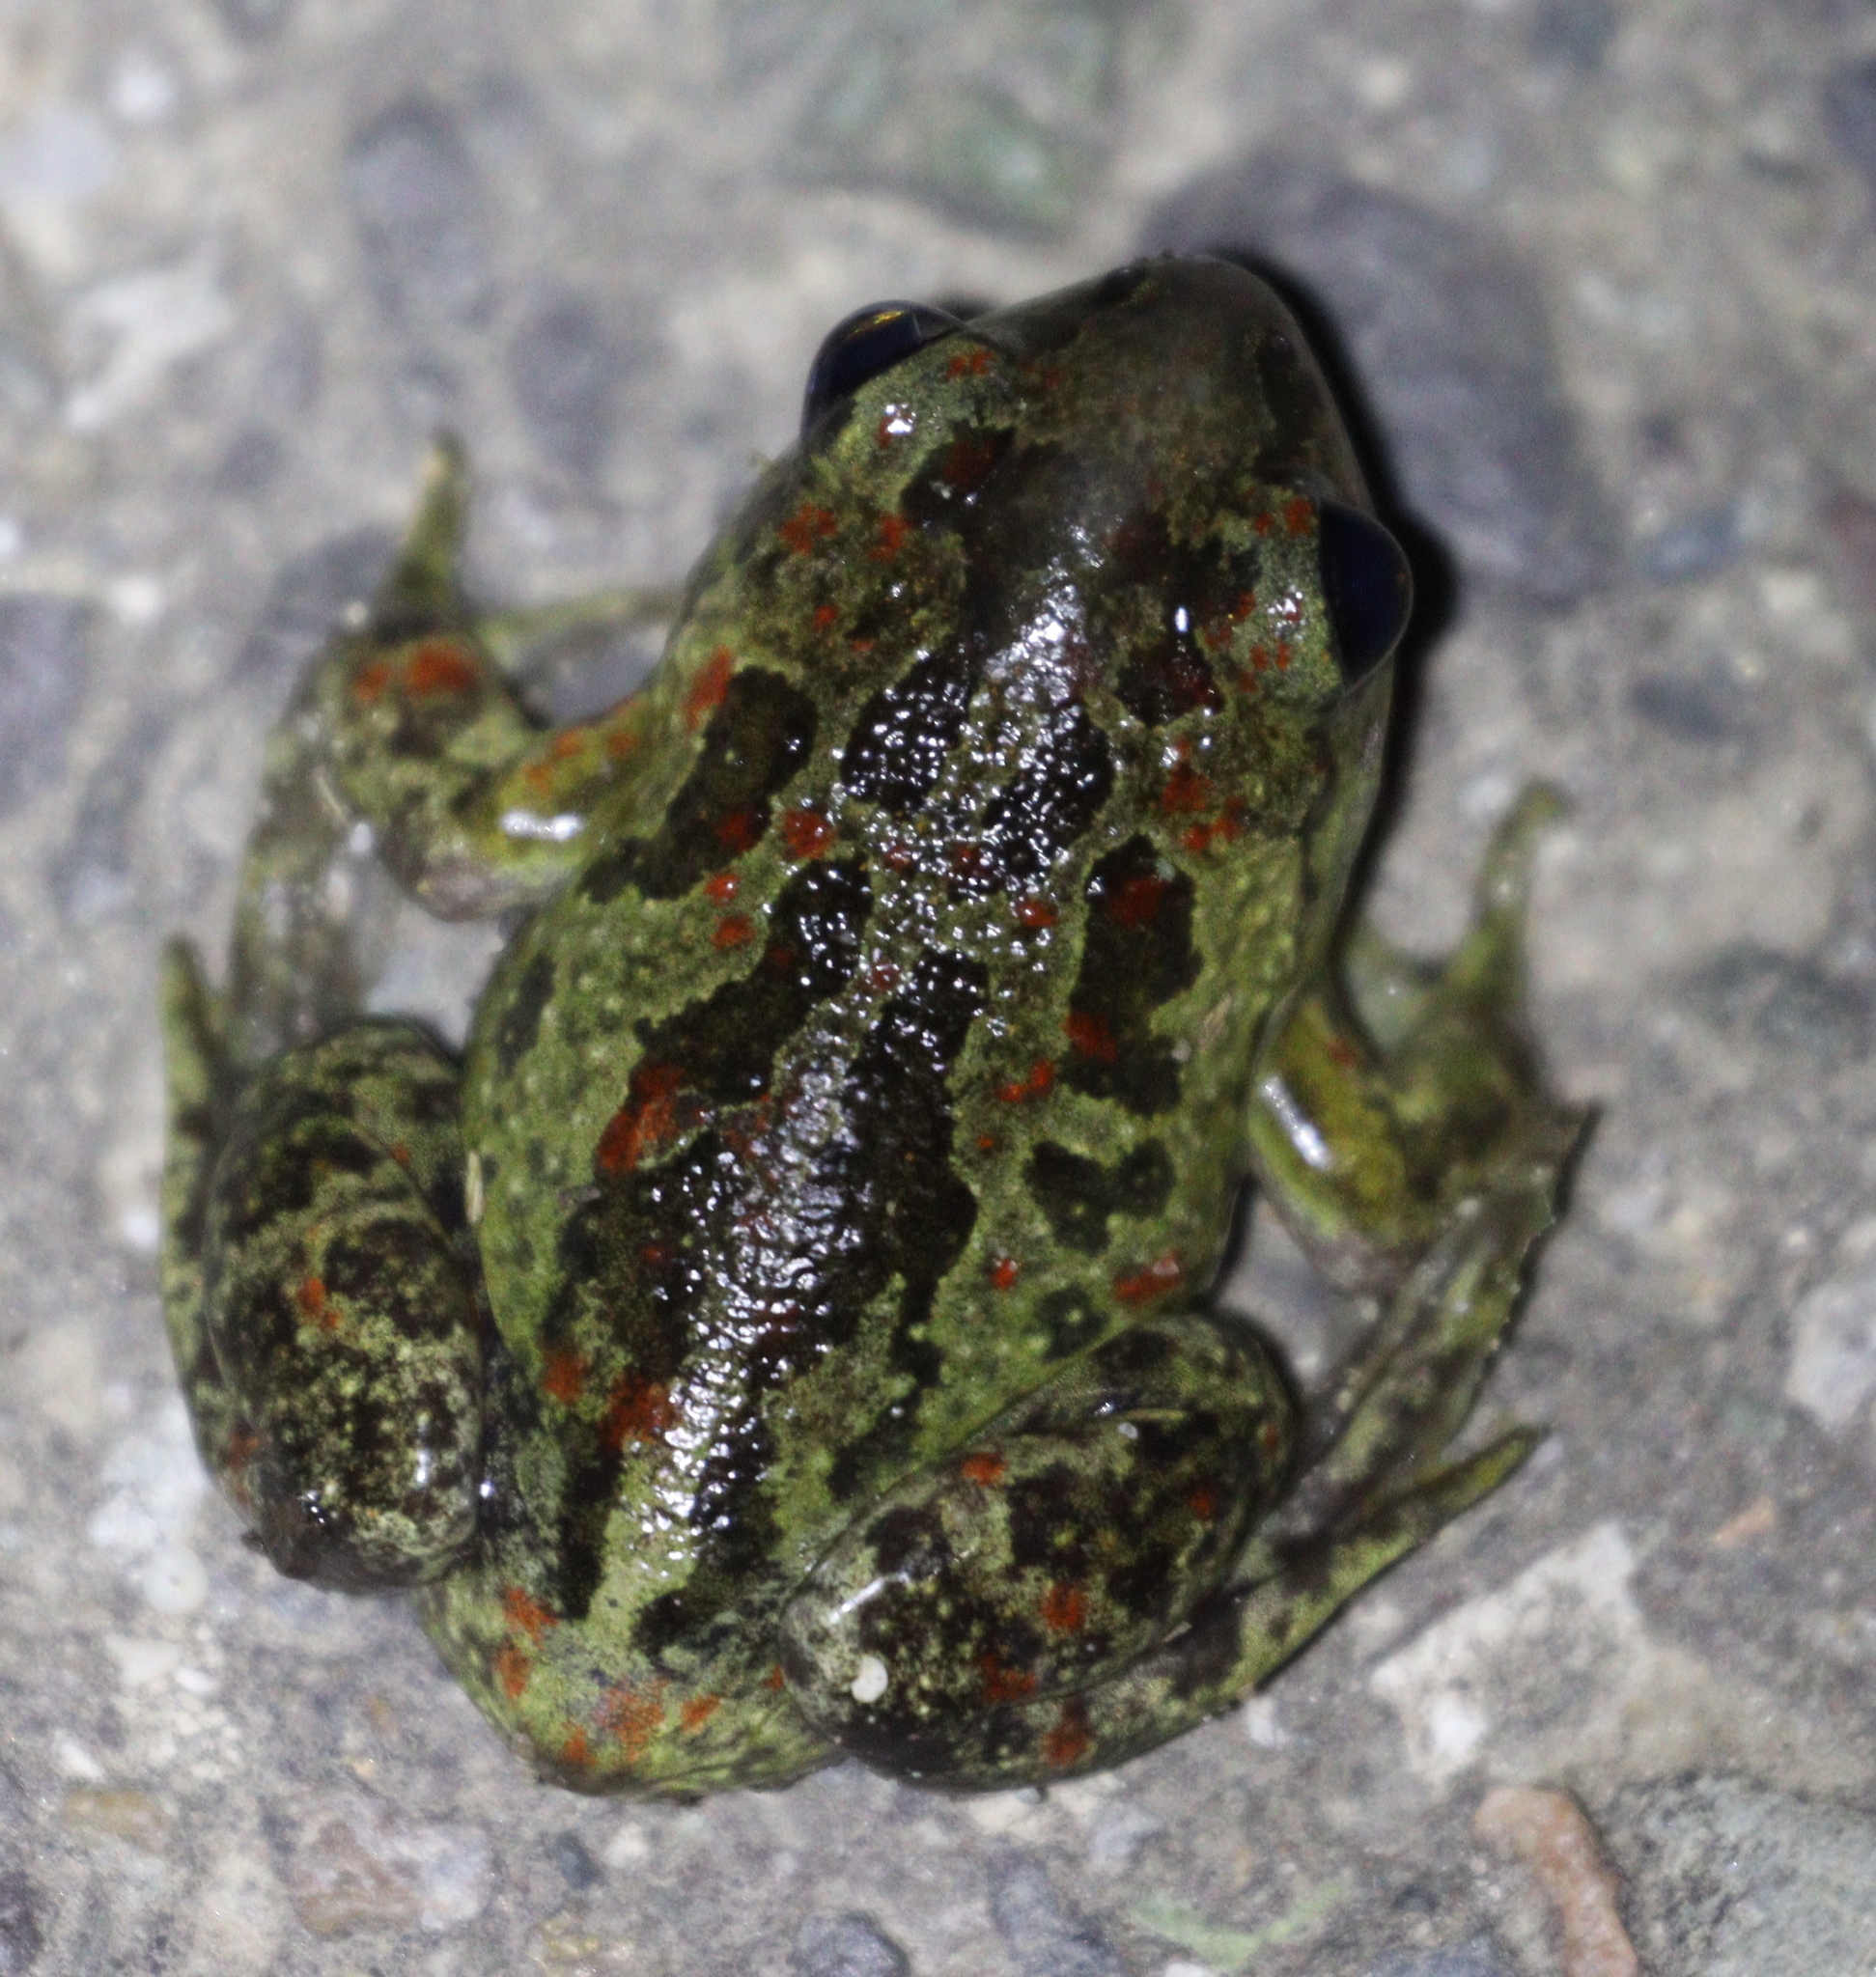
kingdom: Animalia
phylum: Chordata
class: Amphibia
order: Anura
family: Pelobatidae
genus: Pelobates
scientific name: Pelobates fuscus
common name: Common eurasian spadefoot toad
